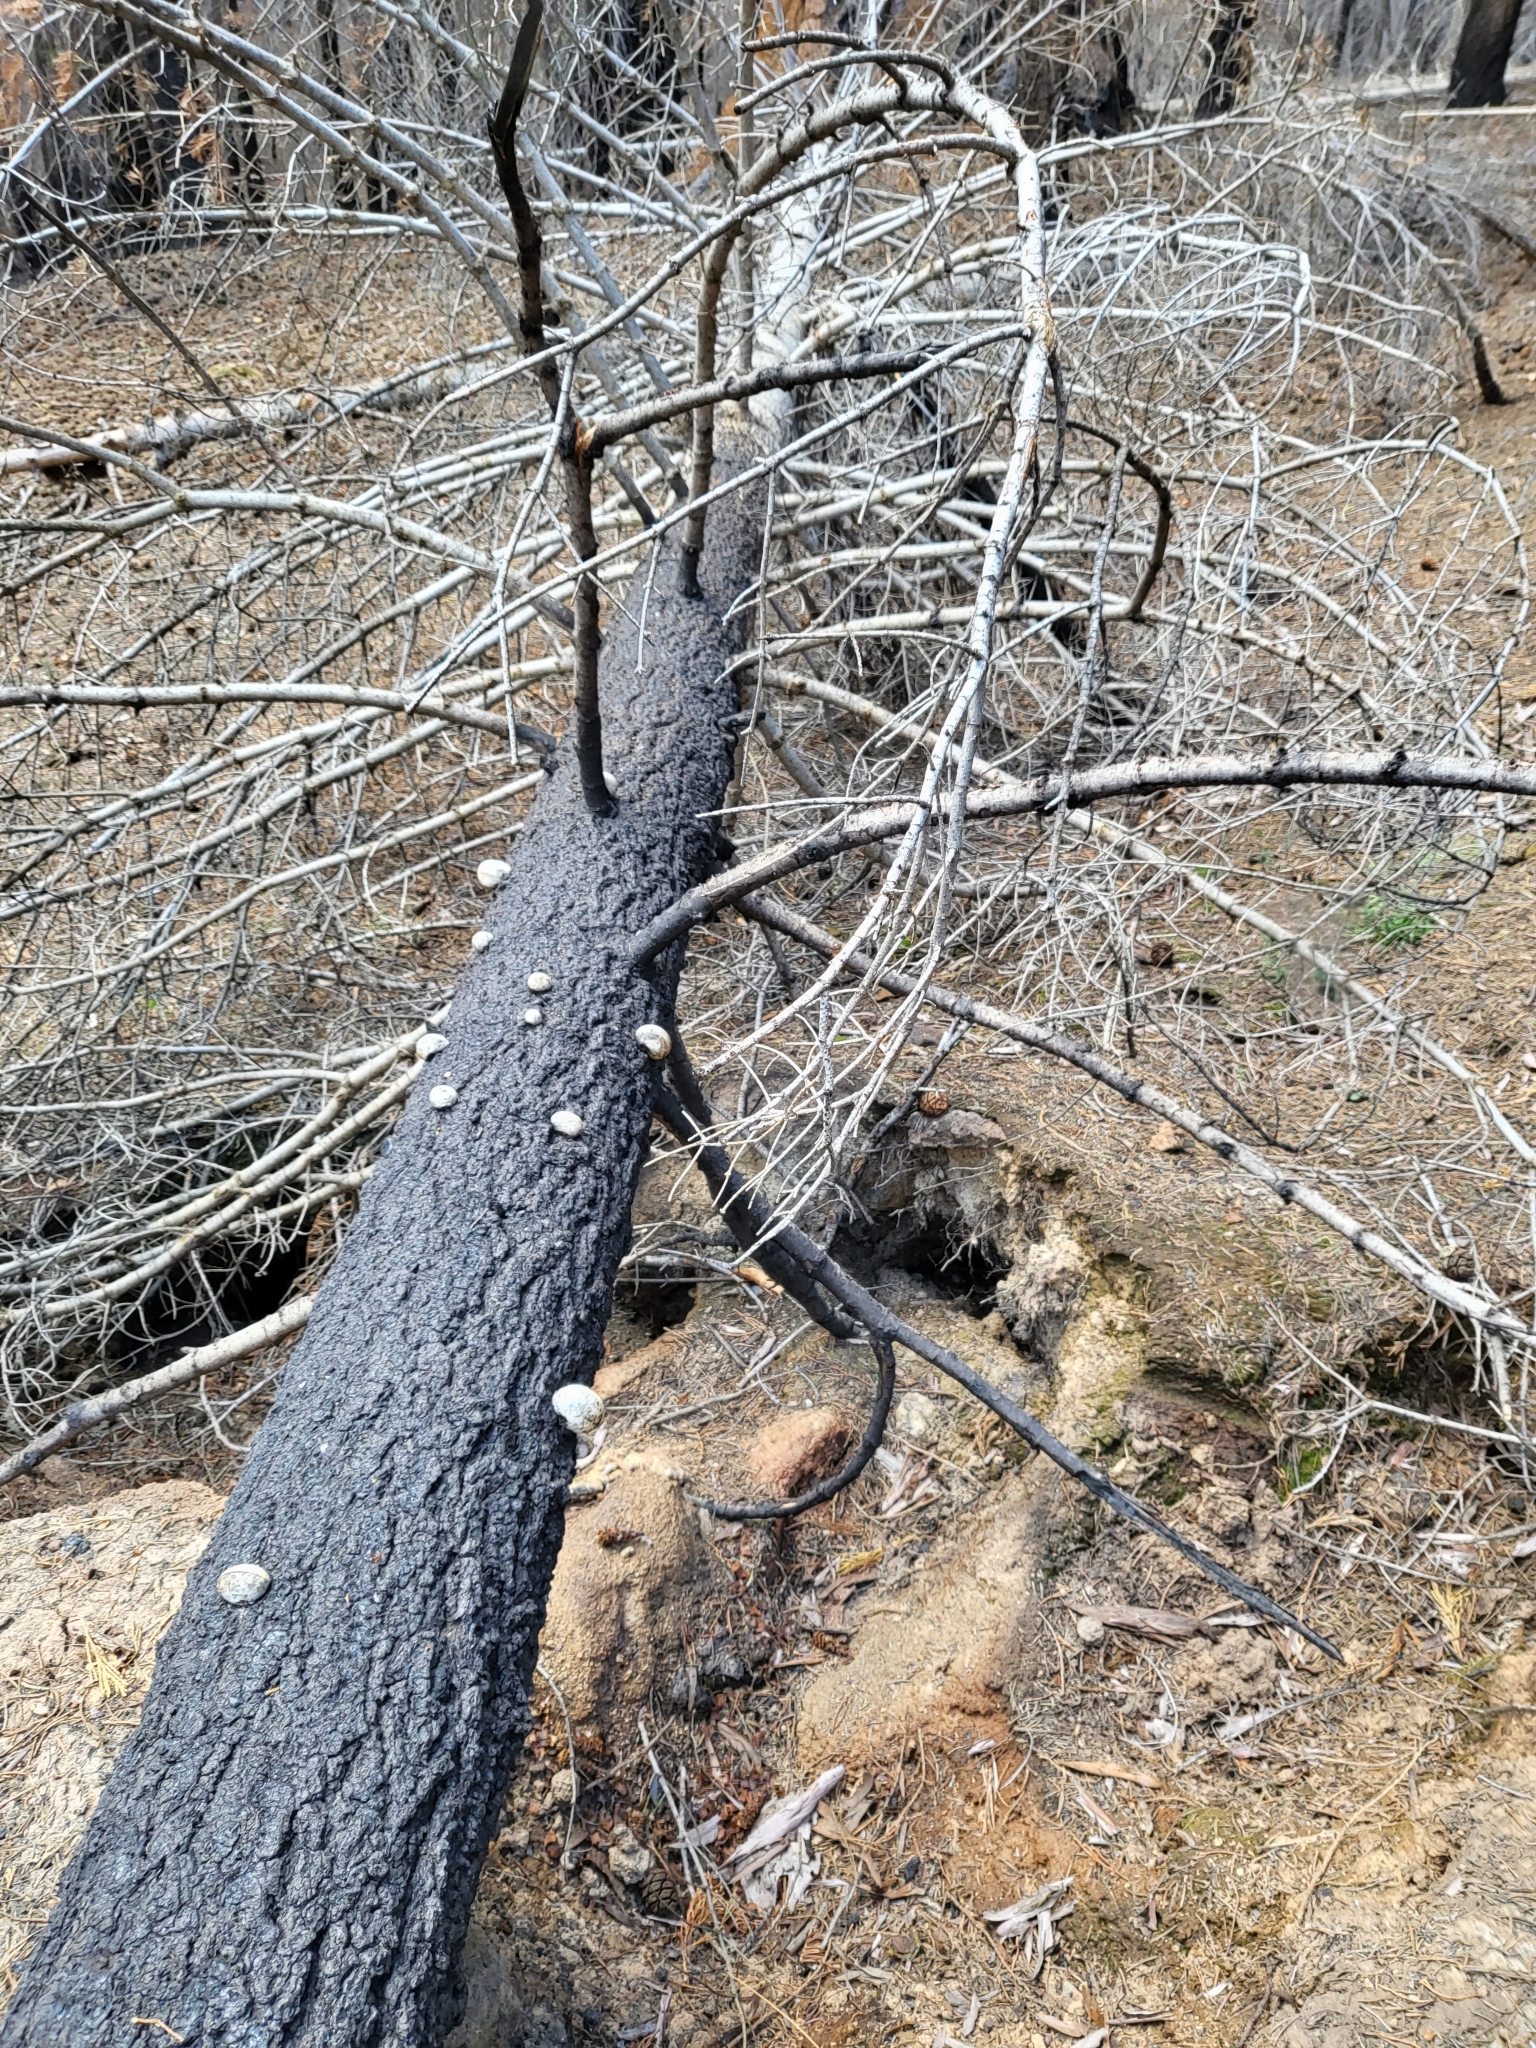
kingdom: Fungi
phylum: Basidiomycota
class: Agaricomycetes
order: Polyporales
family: Polyporaceae
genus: Cryptoporus
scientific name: Cryptoporus volvatus
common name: Veiled polypore
